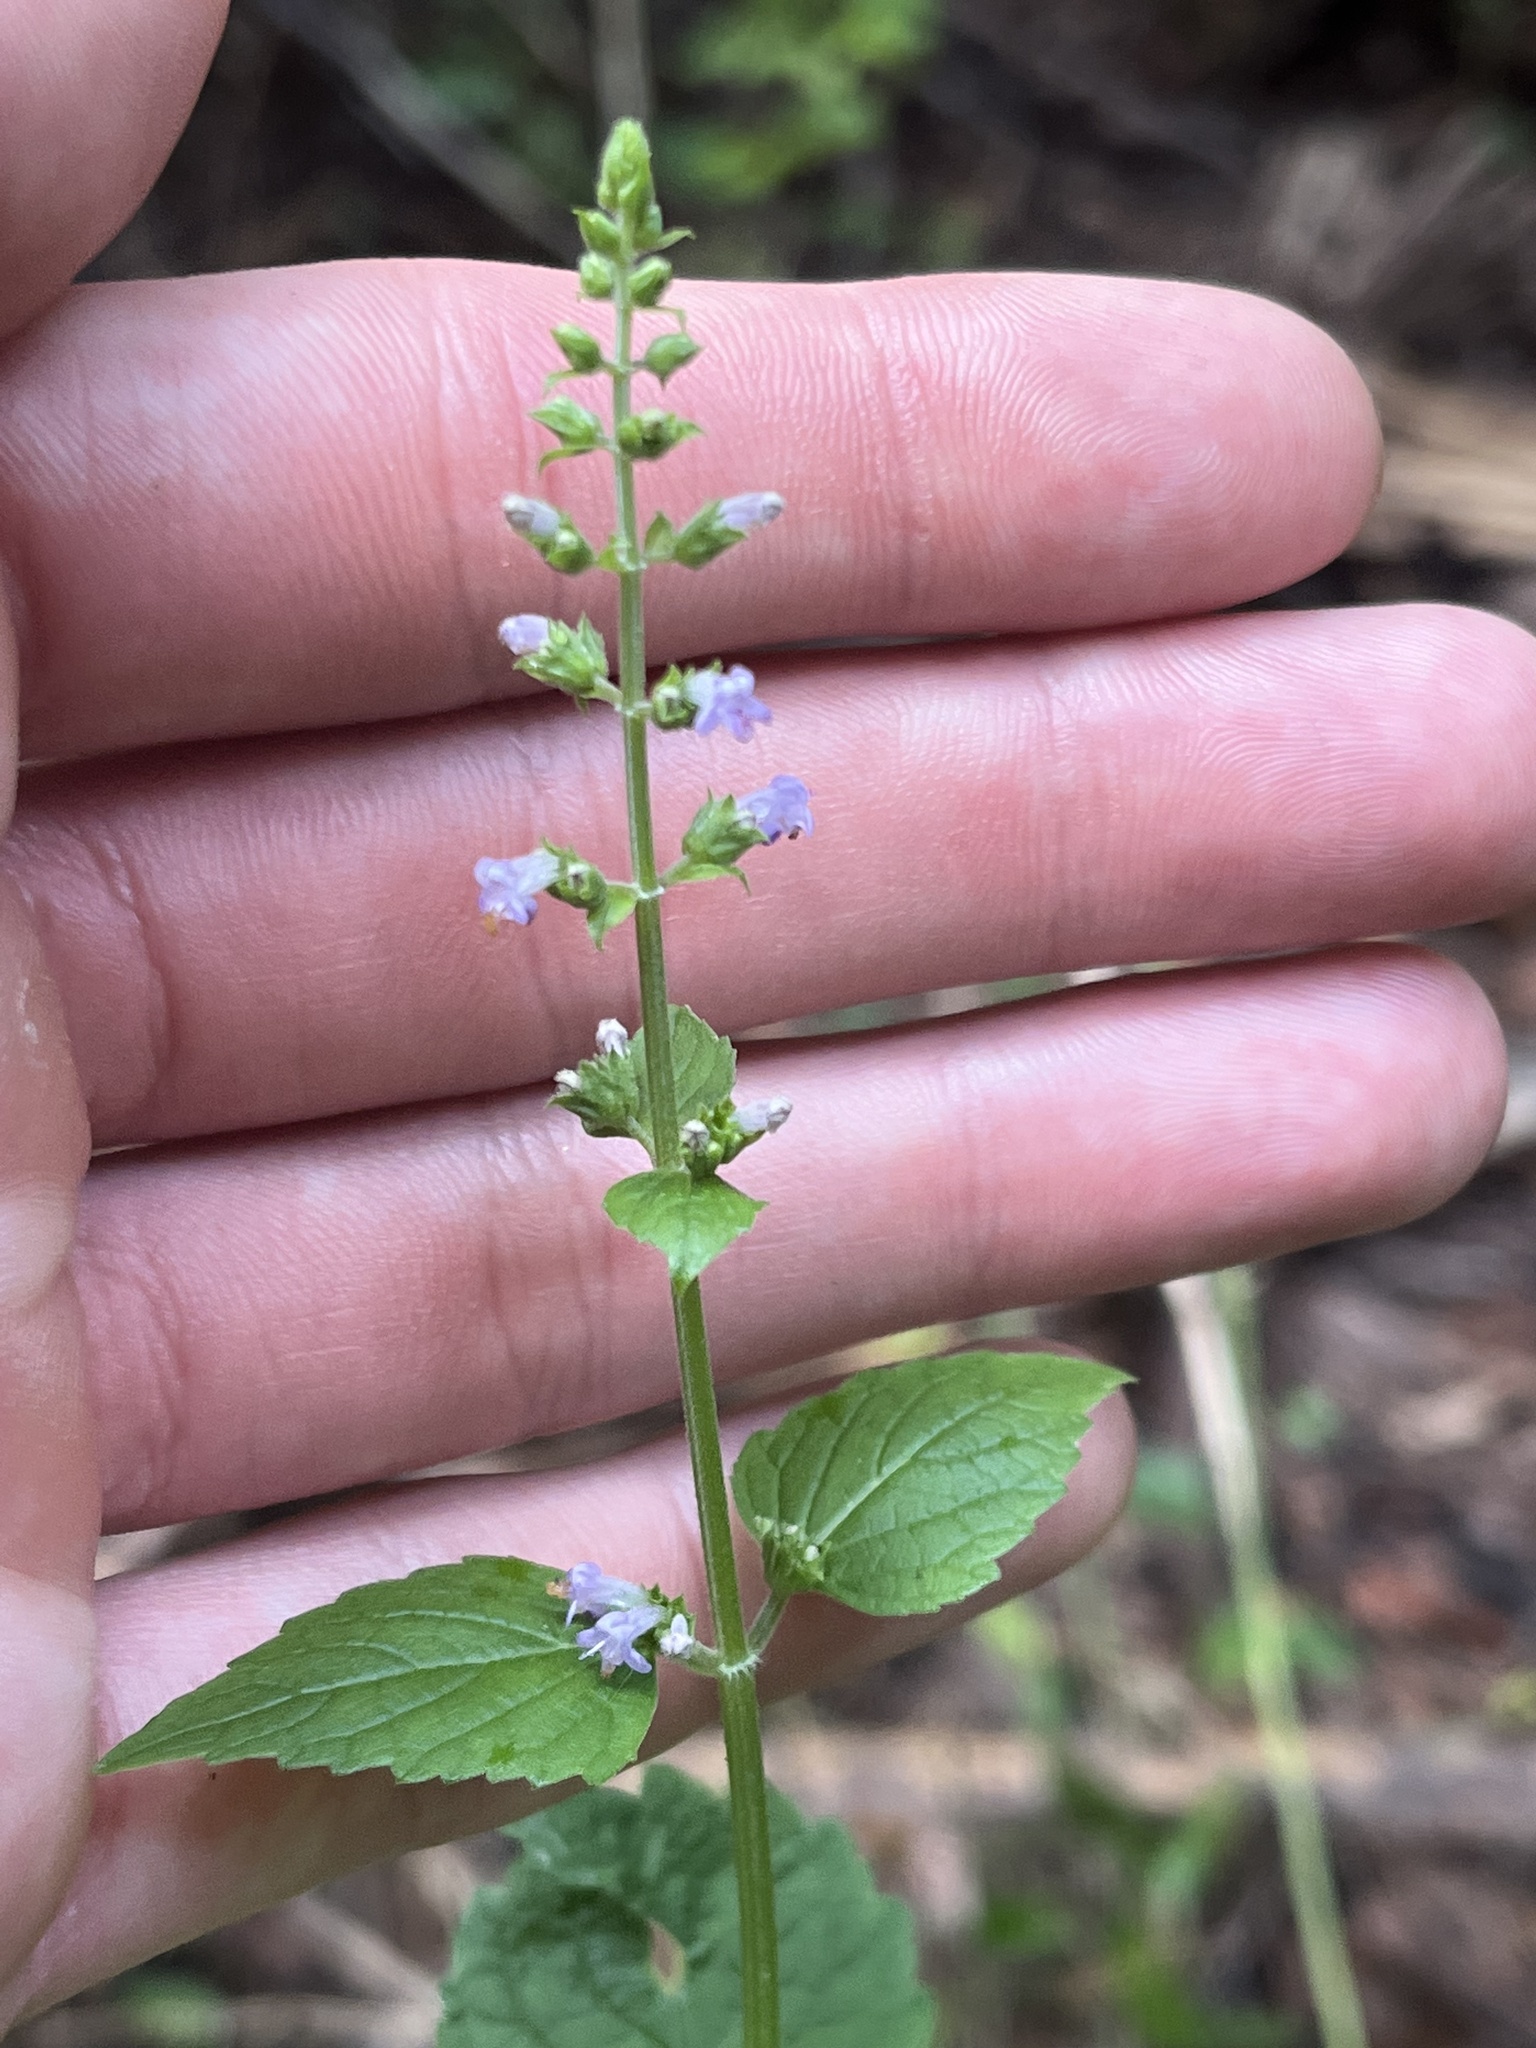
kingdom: Plantae
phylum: Tracheophyta
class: Magnoliopsida
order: Lamiales
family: Lamiaceae
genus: Cantinoa
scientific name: Cantinoa mutabilis
